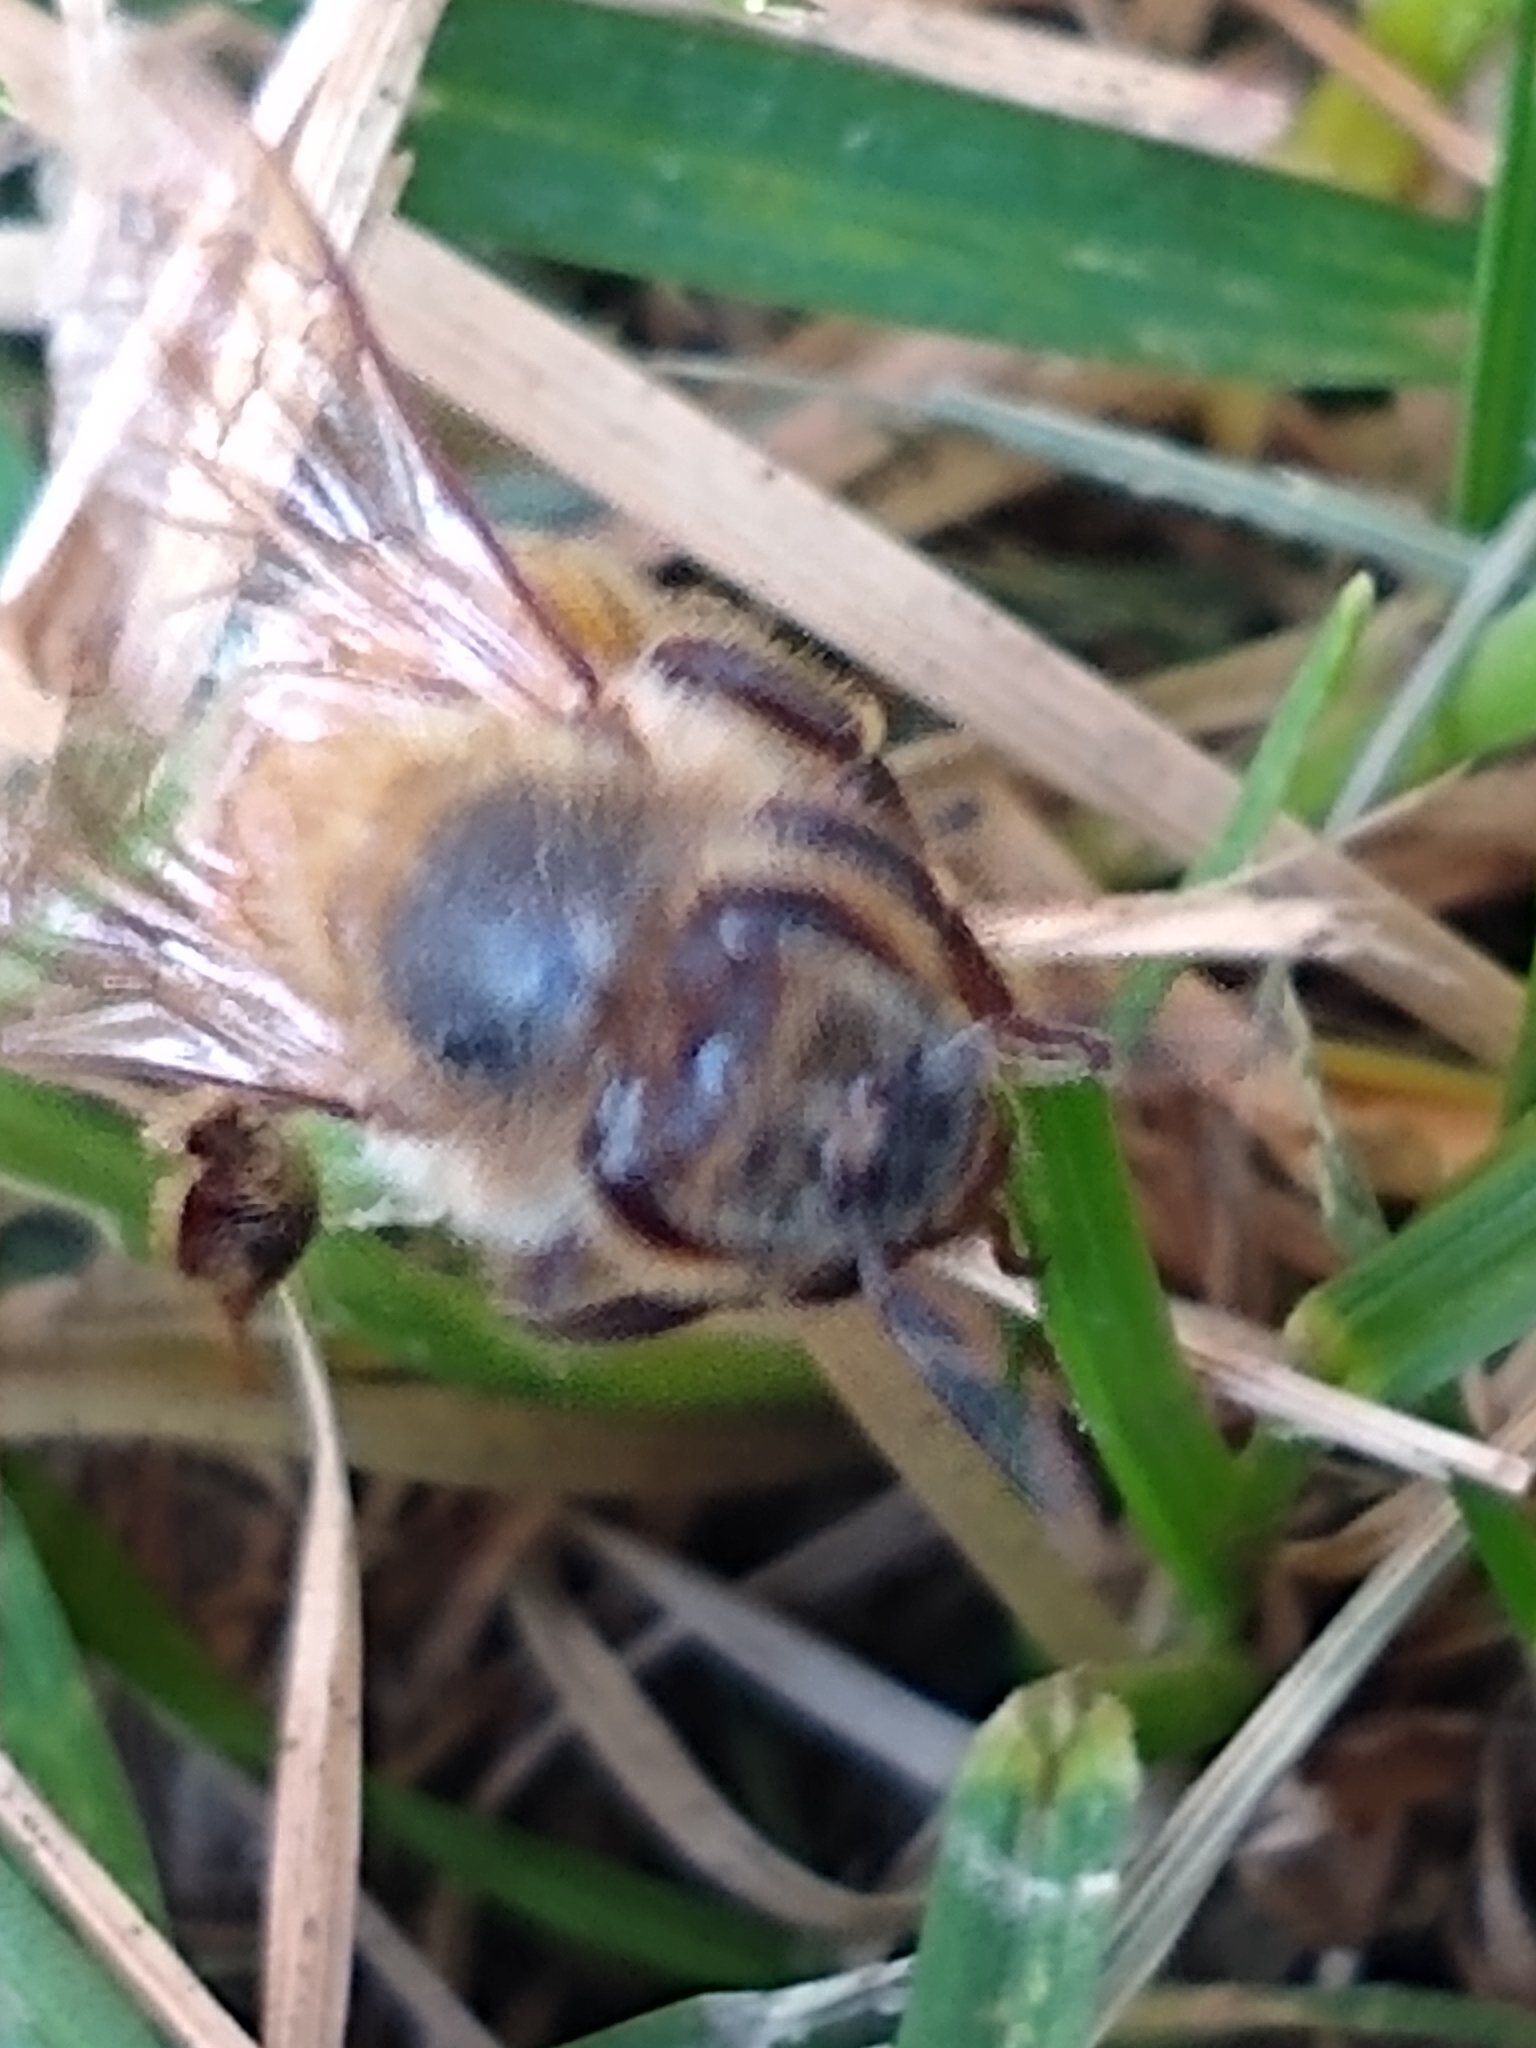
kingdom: Animalia
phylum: Arthropoda
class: Insecta
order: Hymenoptera
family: Apidae
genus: Apis
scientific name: Apis mellifera
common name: Honey bee
